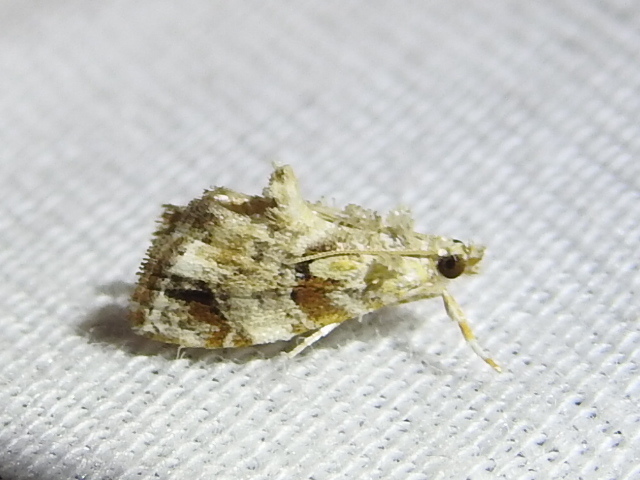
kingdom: Animalia
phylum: Arthropoda
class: Insecta
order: Lepidoptera
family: Crambidae
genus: Glaphyria
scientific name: Glaphyria basiflavalis
